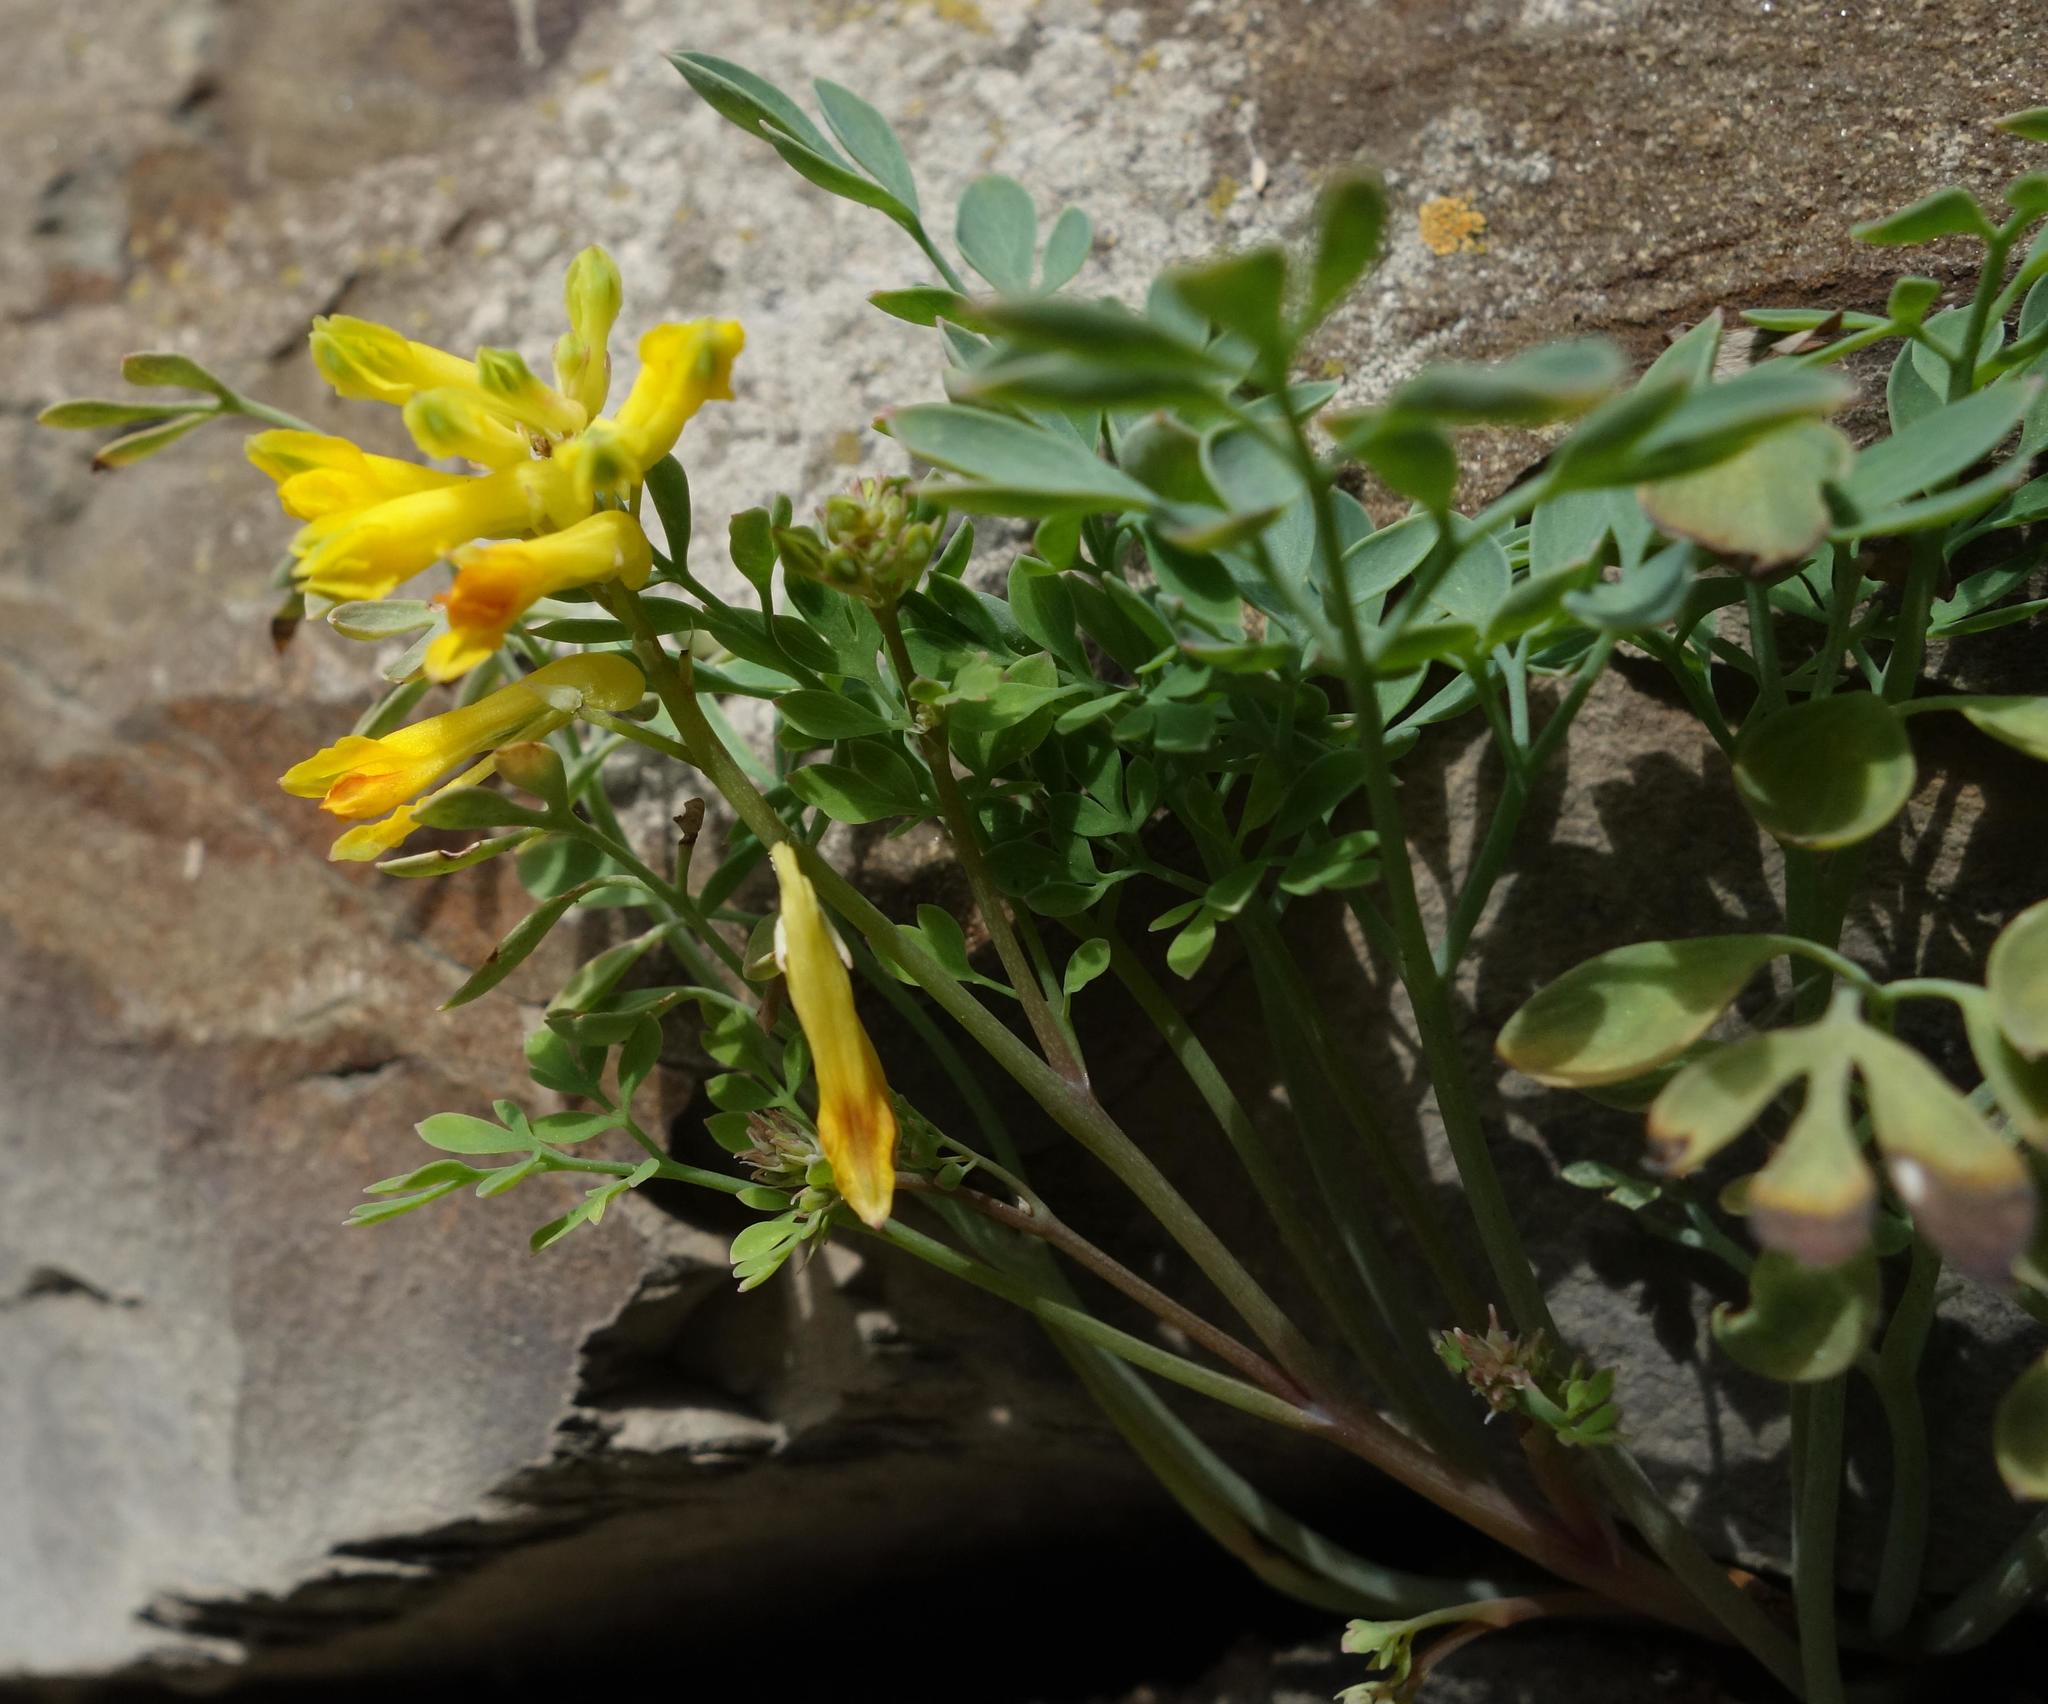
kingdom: Plantae
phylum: Tracheophyta
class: Magnoliopsida
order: Ranunculales
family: Papaveraceae
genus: Pseudofumaria
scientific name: Pseudofumaria lutea
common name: Yellow corydalis
